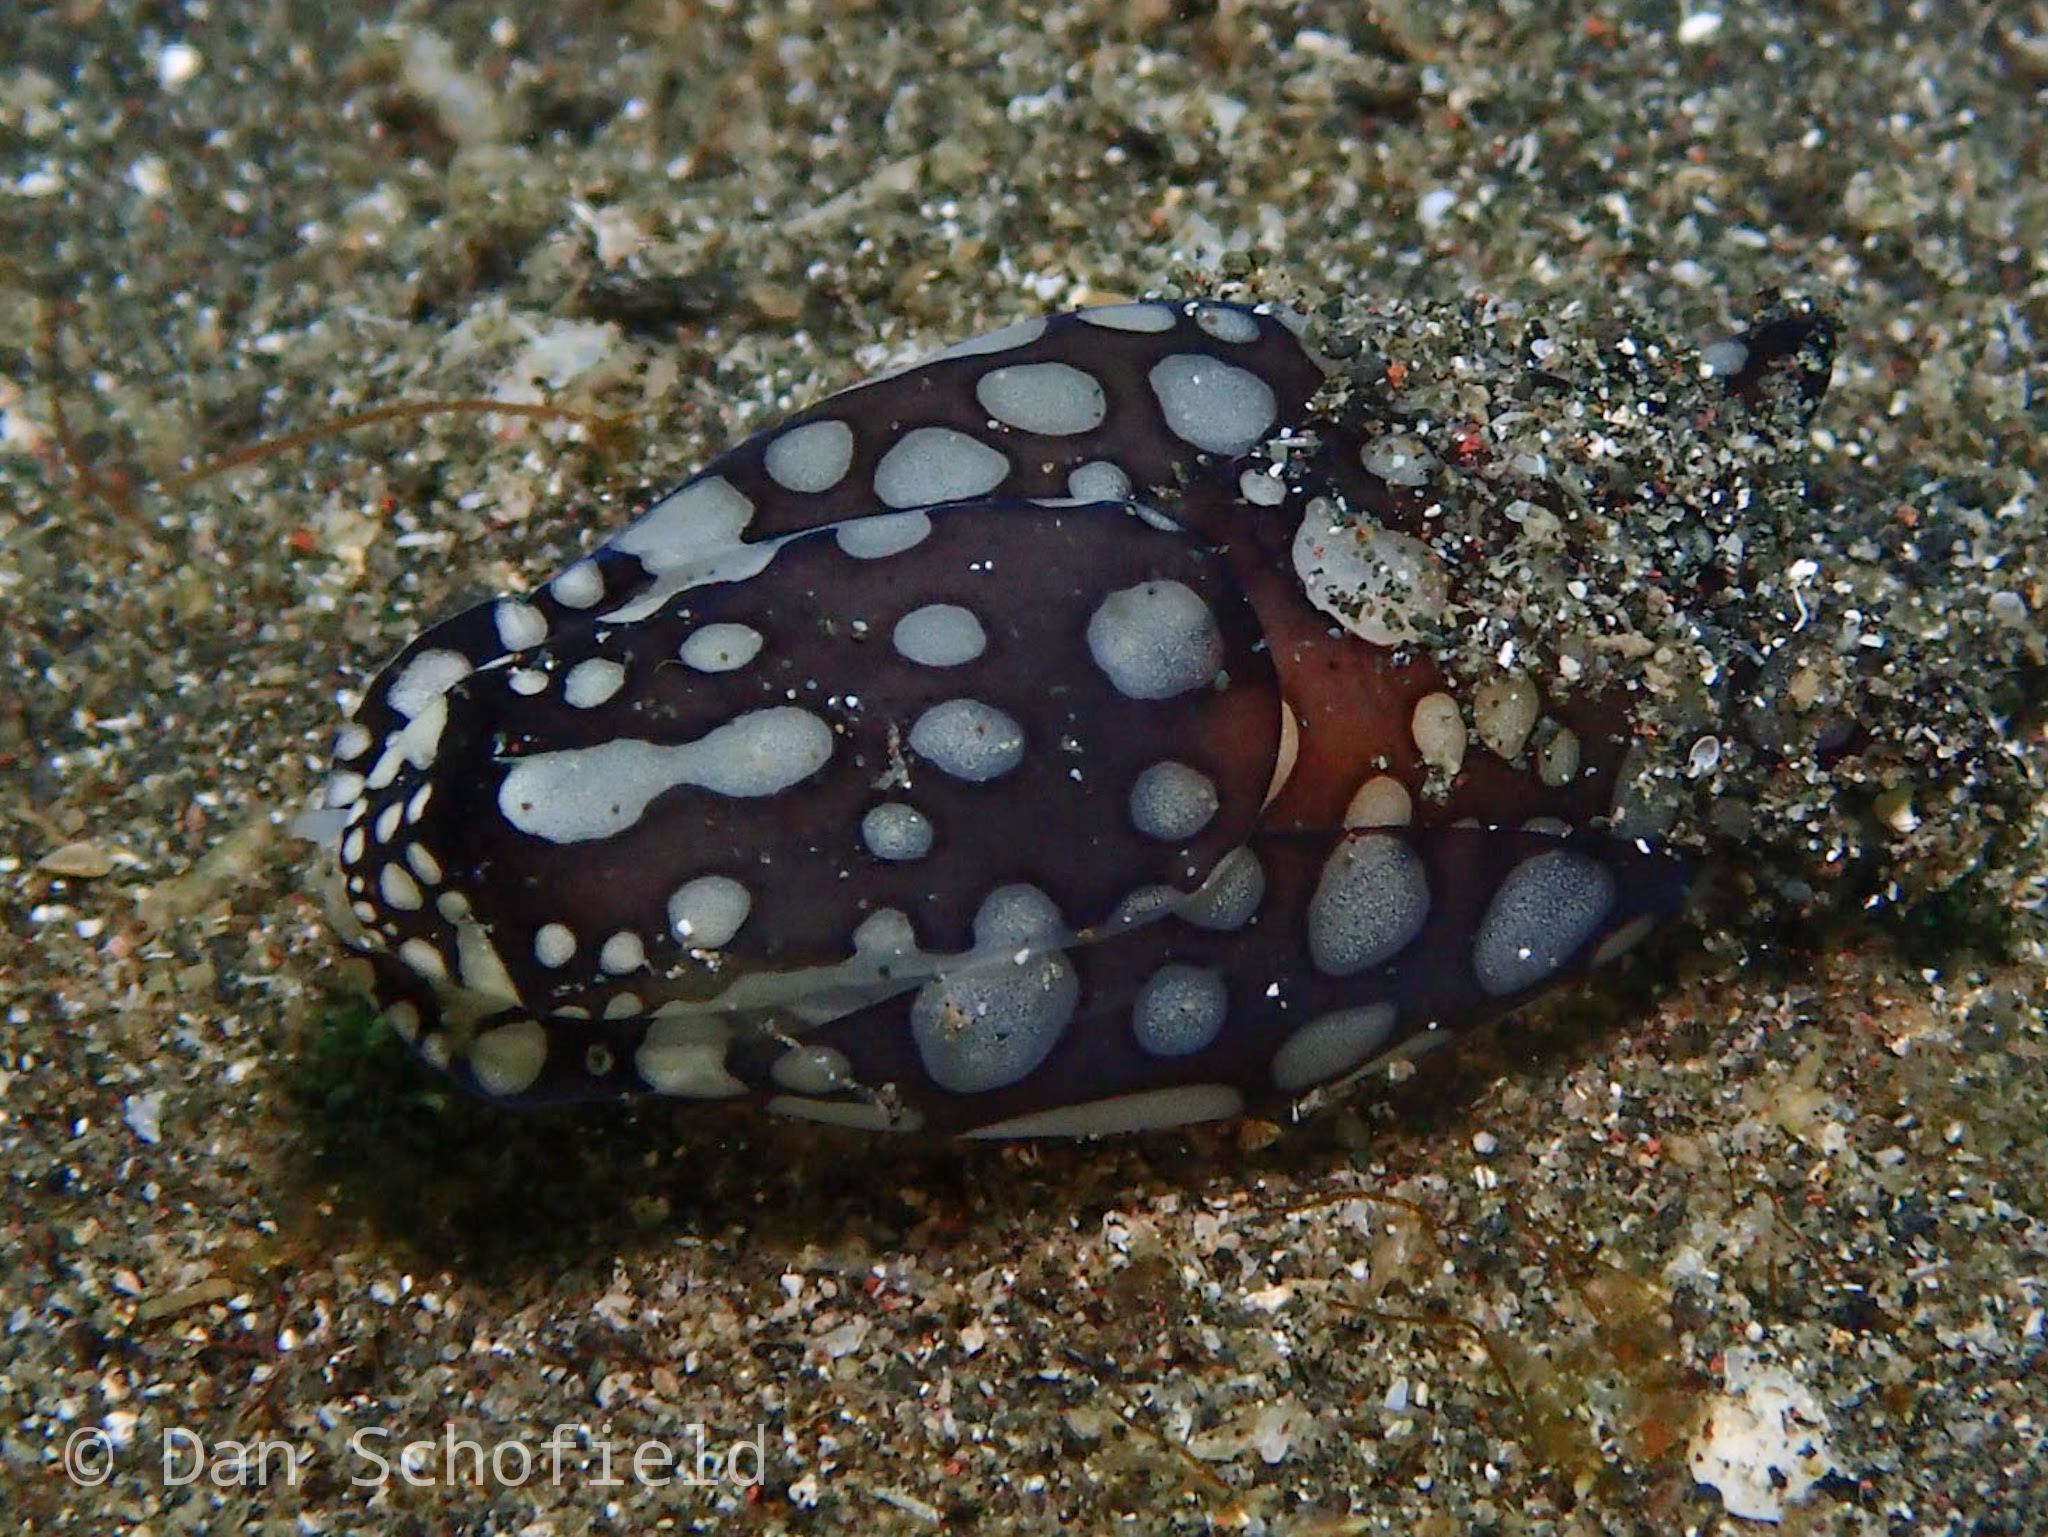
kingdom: Animalia
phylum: Mollusca
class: Gastropoda
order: Cephalaspidea
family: Aglajidae
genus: Tubulophilinopsis
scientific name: Tubulophilinopsis pilsbryi
